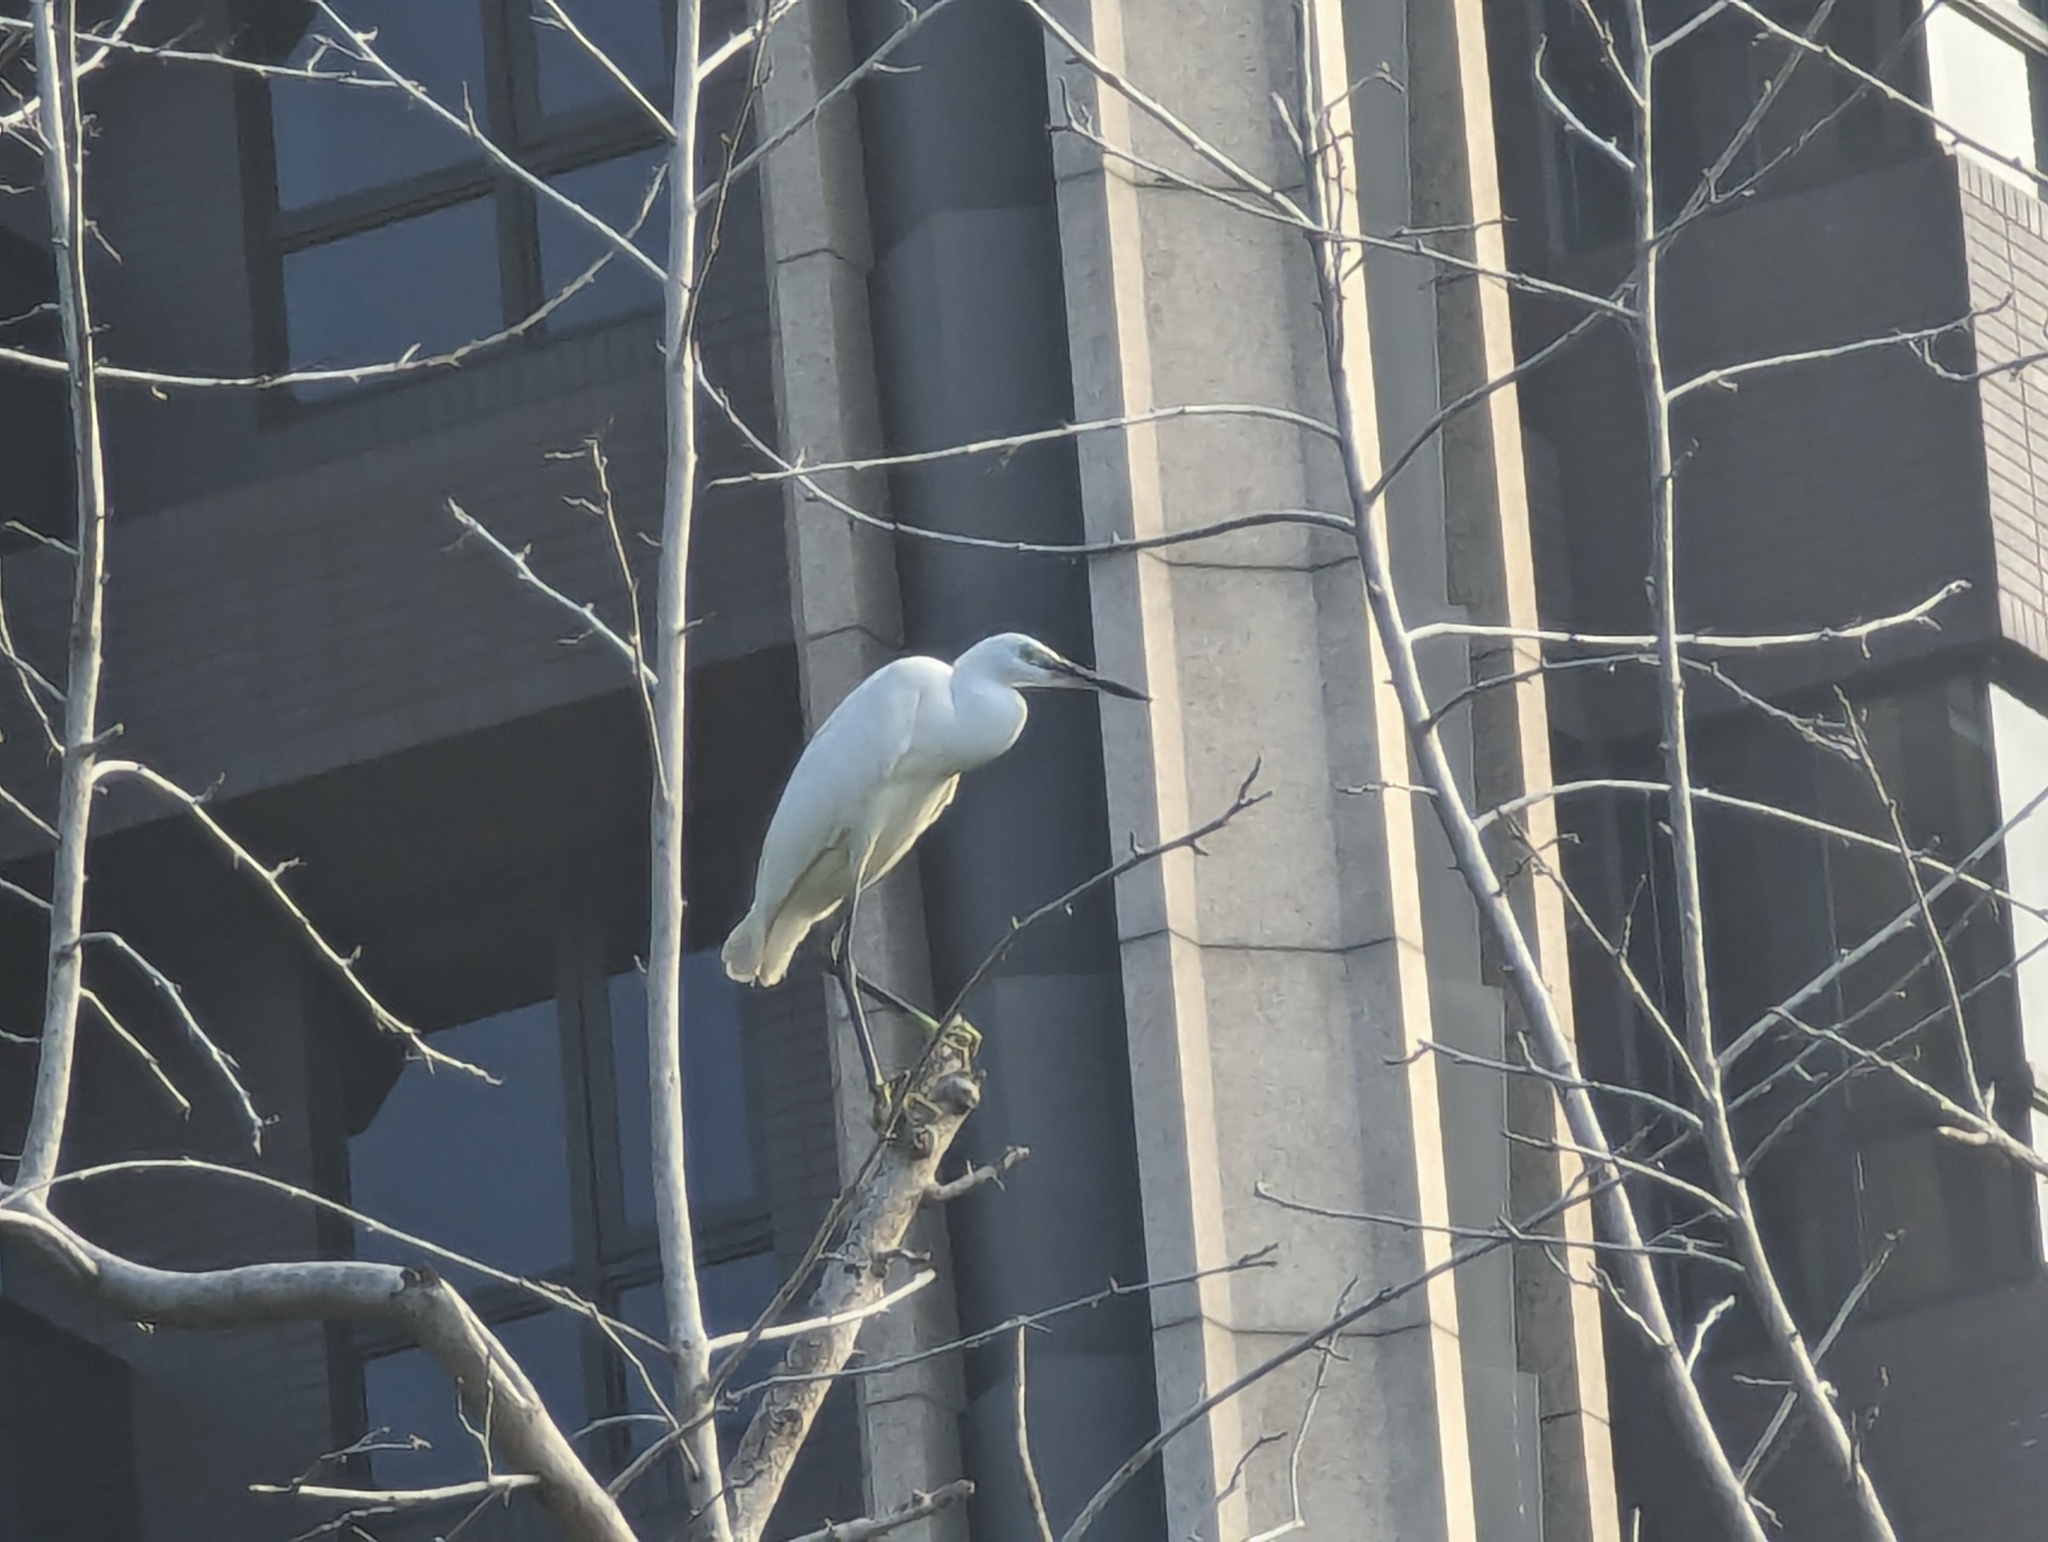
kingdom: Animalia
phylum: Chordata
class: Aves
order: Pelecaniformes
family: Ardeidae
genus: Egretta
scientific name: Egretta garzetta
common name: Little egret
